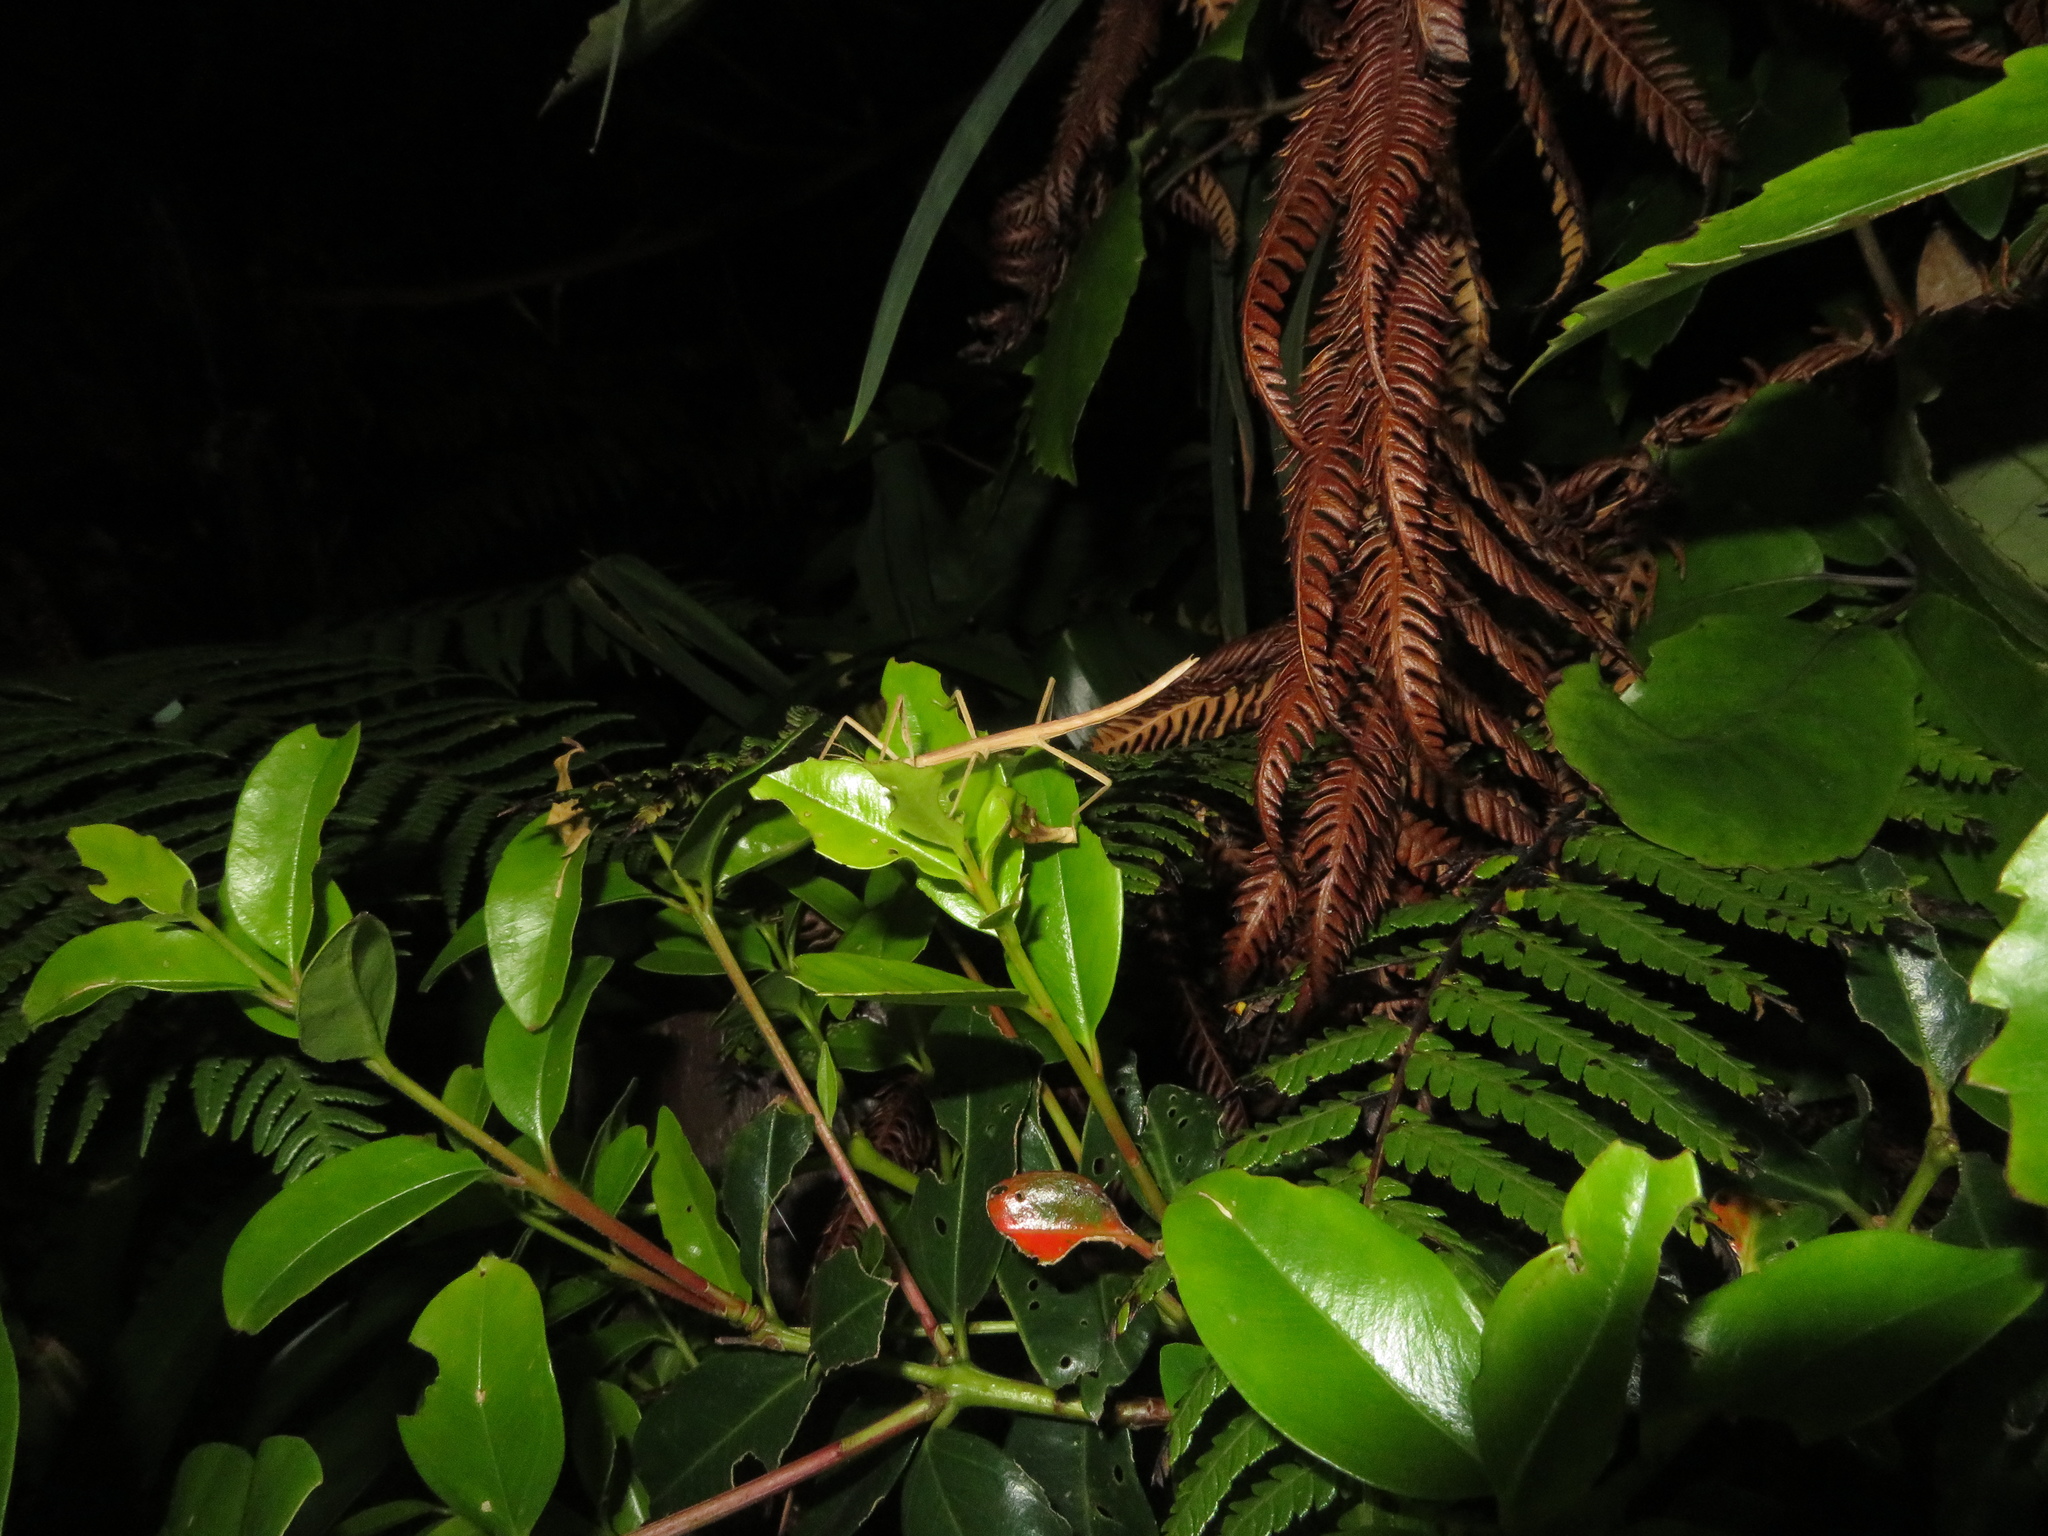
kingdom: Animalia
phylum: Arthropoda
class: Insecta
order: Phasmida
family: Phasmatidae
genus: Tectarchus
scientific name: Tectarchus huttoni
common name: The common ridge-backed stick insect
